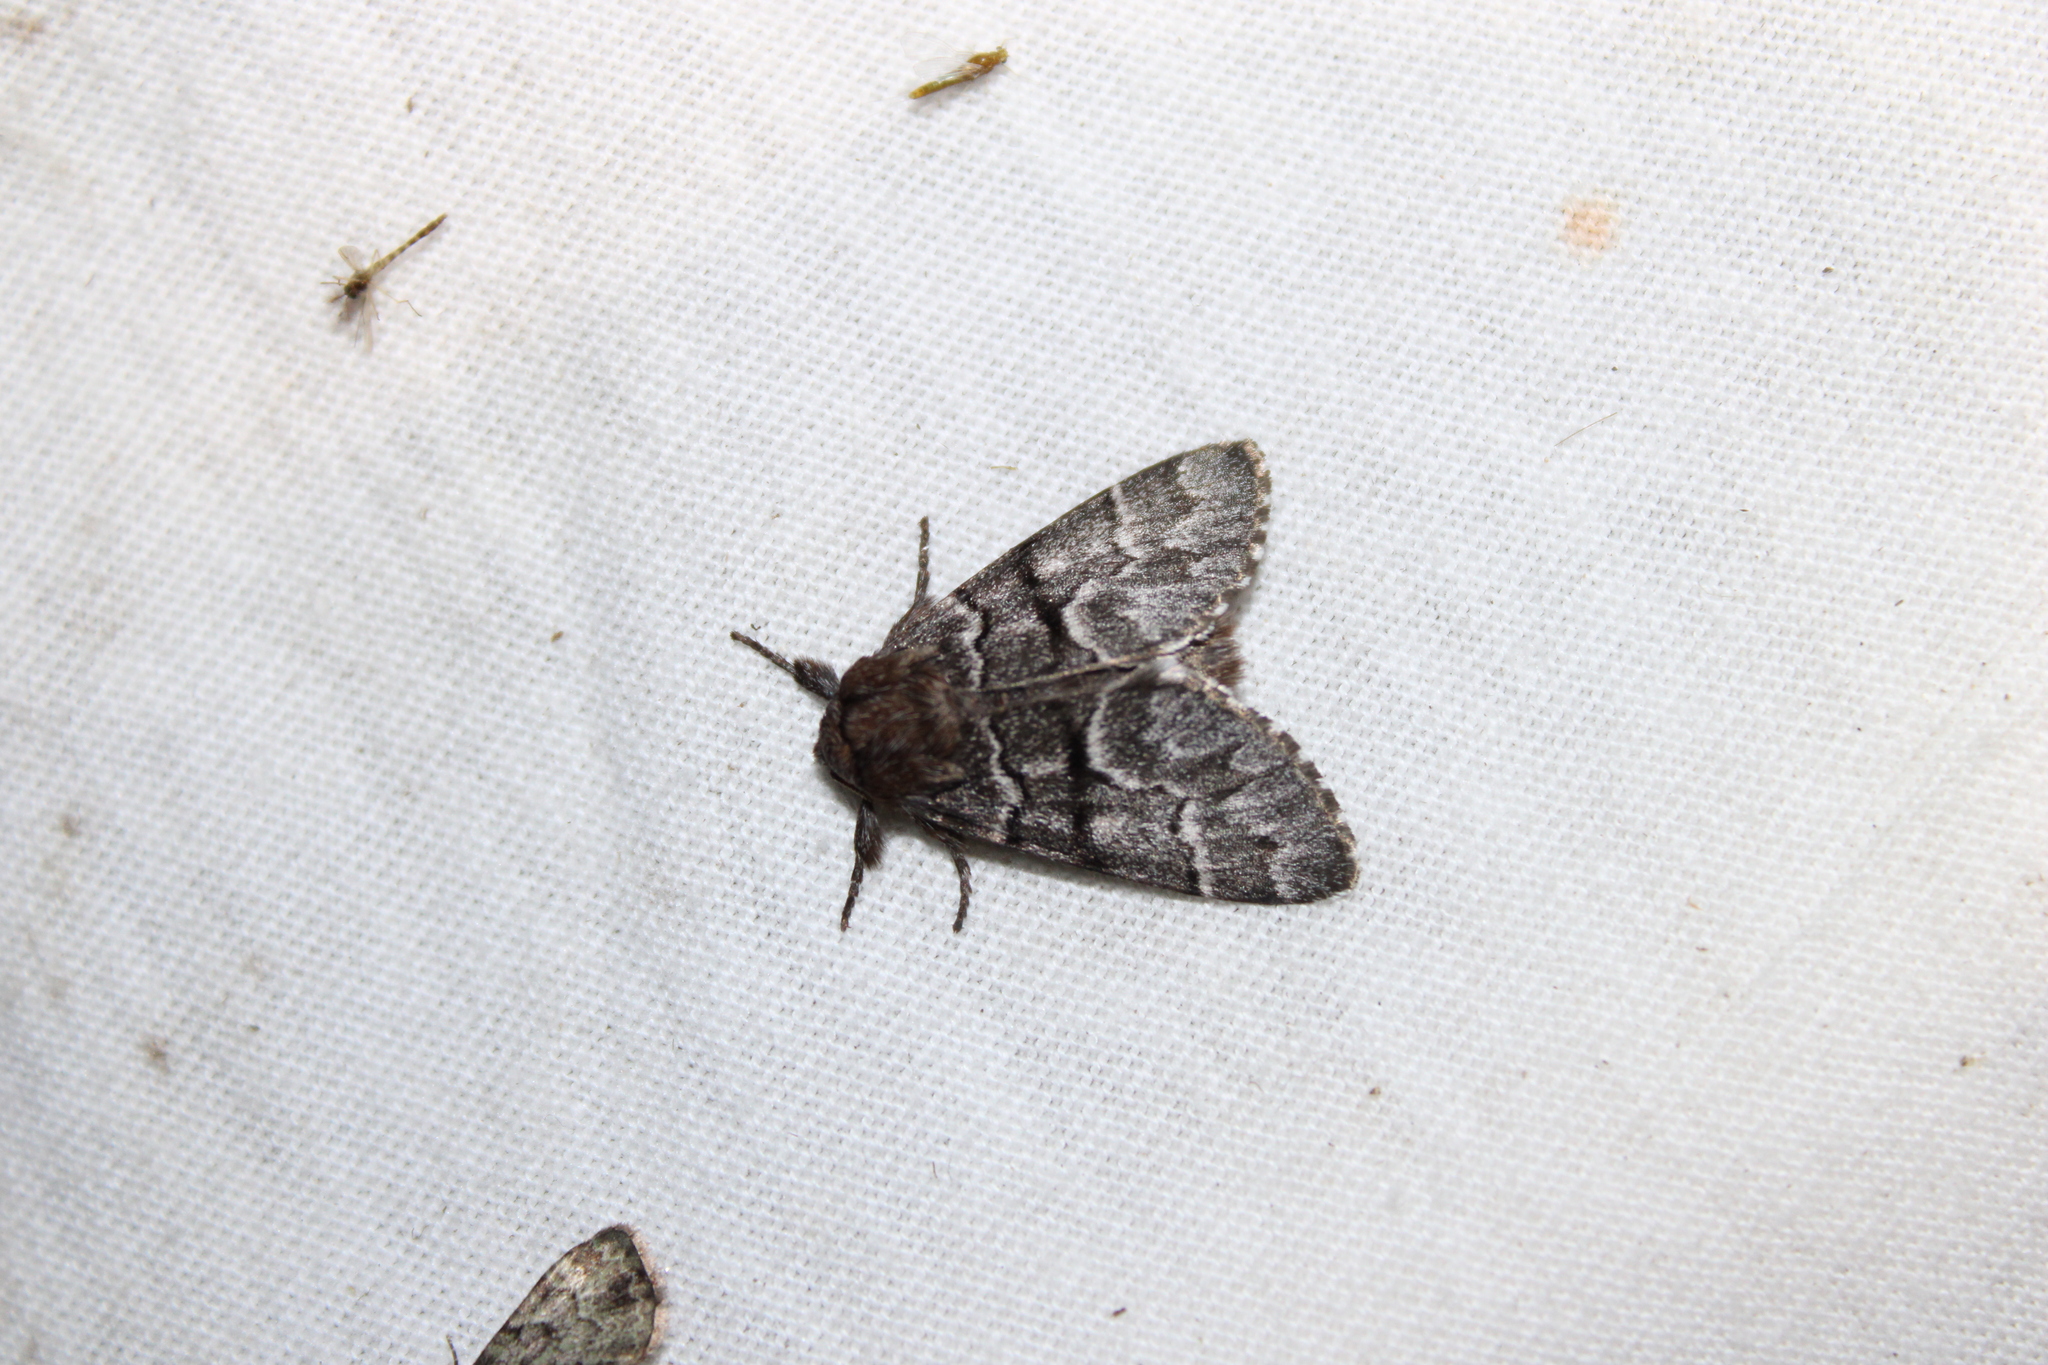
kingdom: Animalia
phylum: Arthropoda
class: Insecta
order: Lepidoptera
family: Noctuidae
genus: Panthea
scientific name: Panthea furcilla
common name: Eastern panthea moth
